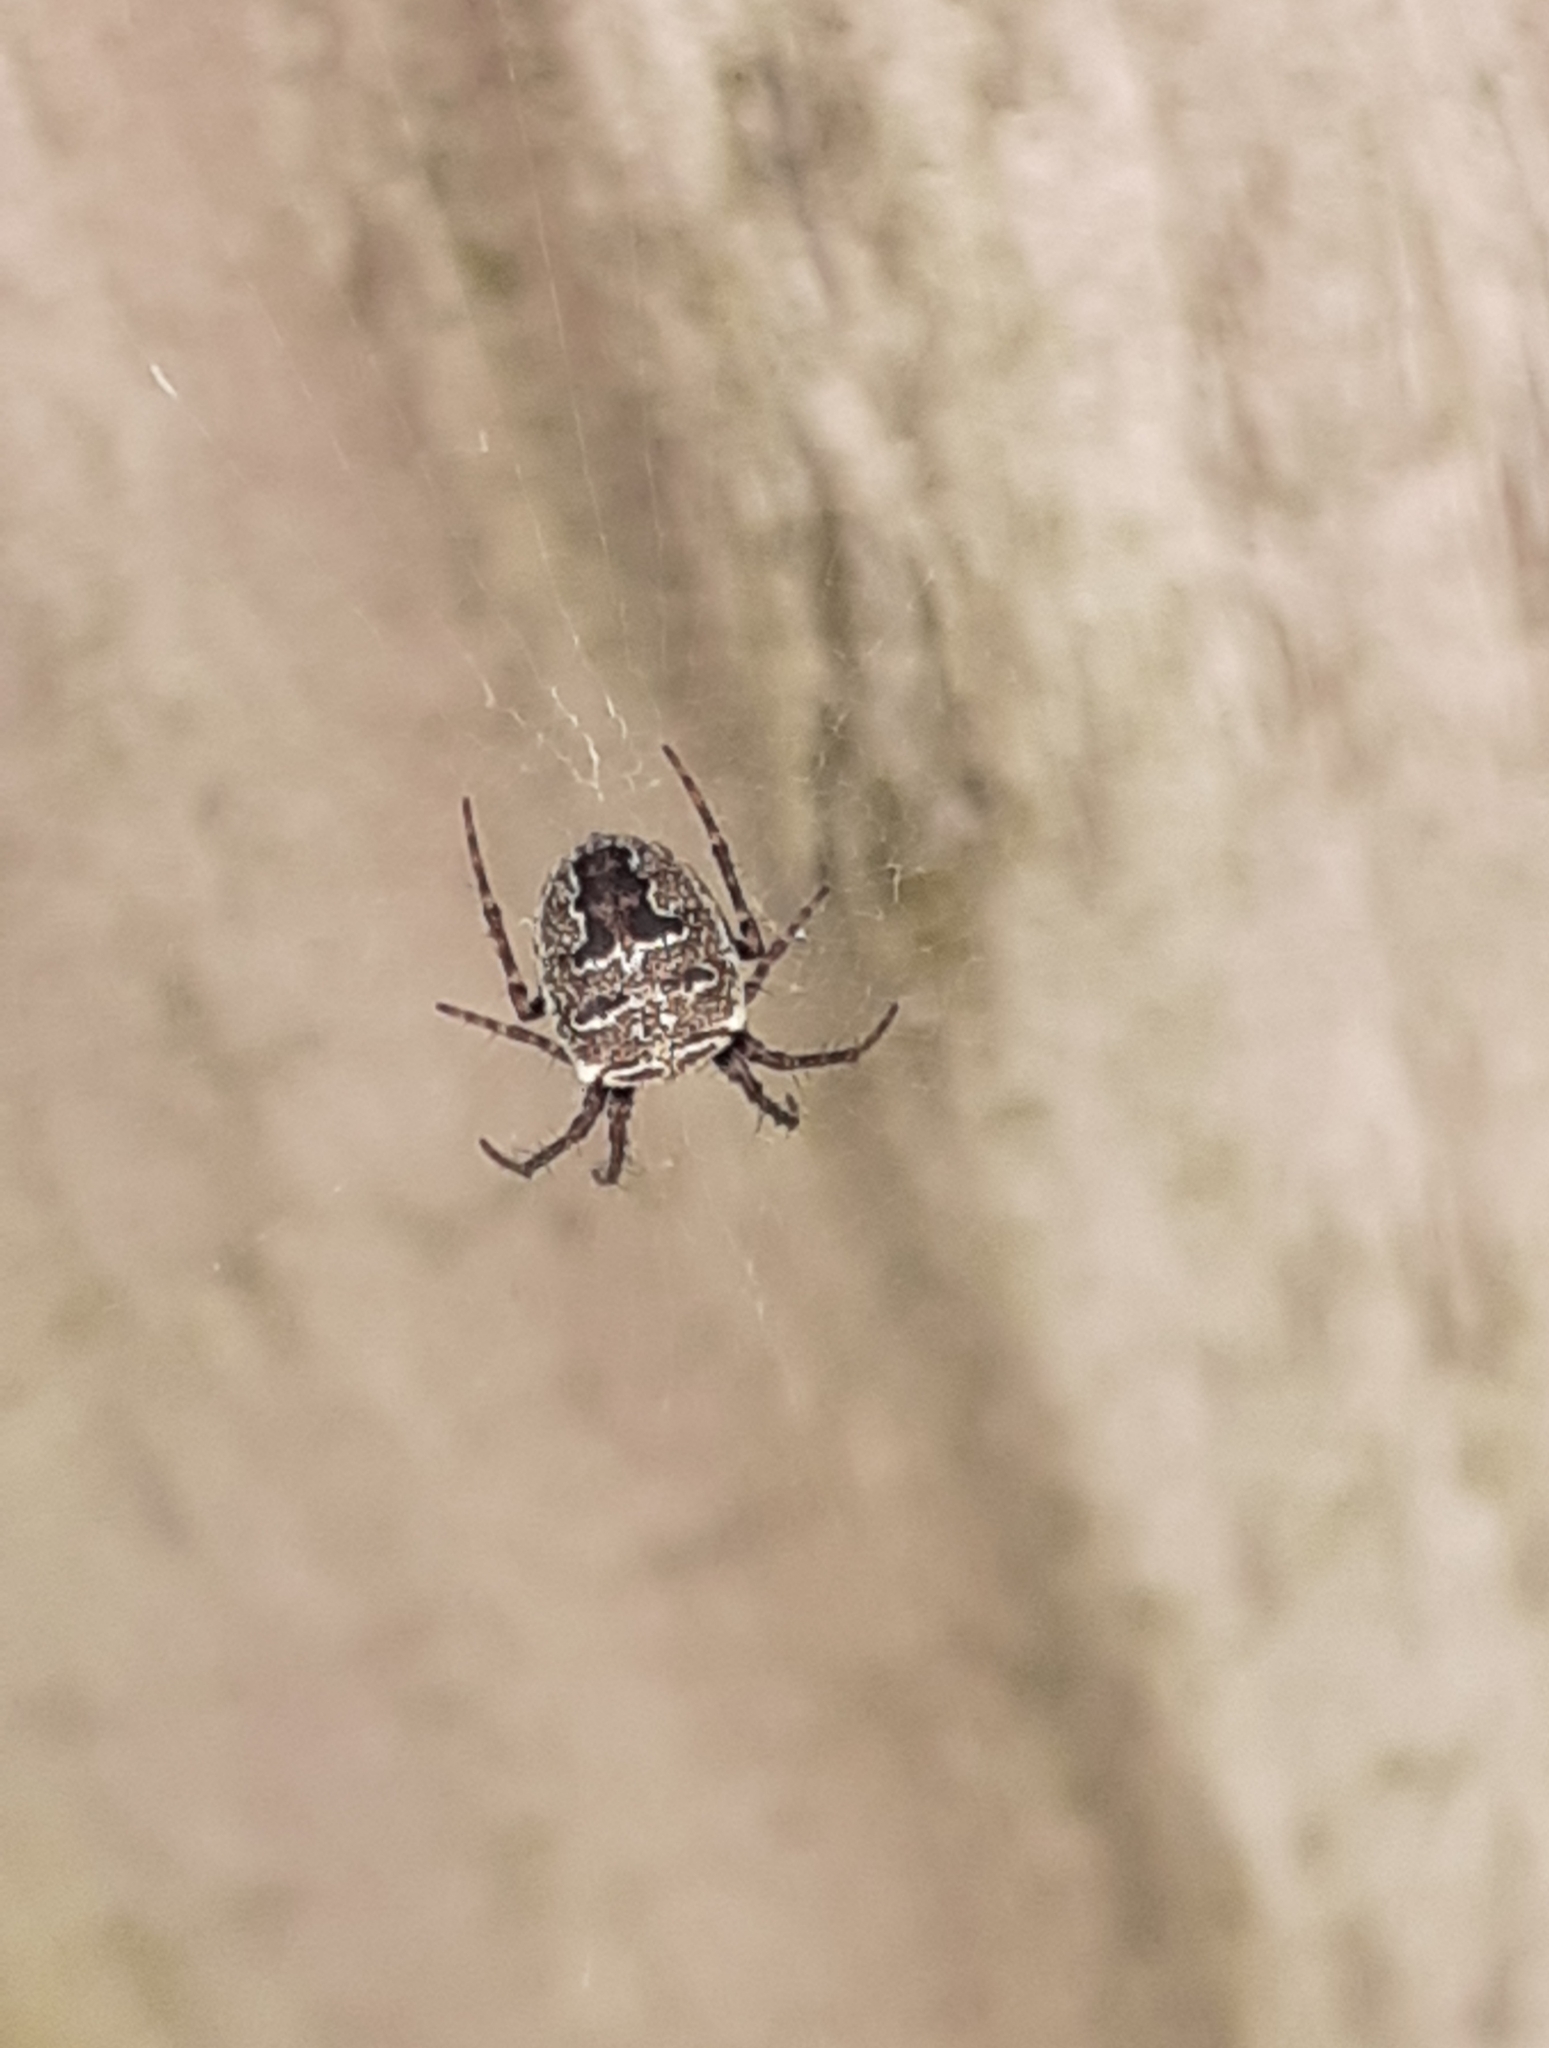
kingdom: Animalia
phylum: Arthropoda
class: Arachnida
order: Araneae
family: Araneidae
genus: Zilla
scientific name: Zilla diodia
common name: Zilla diodia
